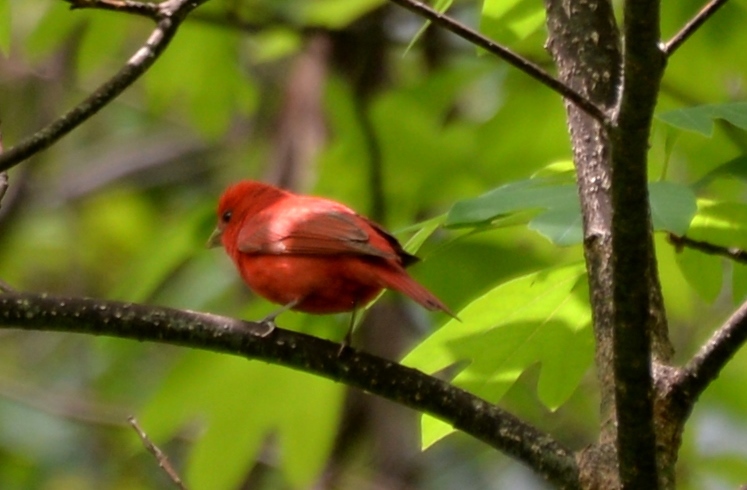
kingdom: Animalia
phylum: Chordata
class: Aves
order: Passeriformes
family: Cardinalidae
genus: Piranga
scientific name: Piranga rubra
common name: Summer tanager
